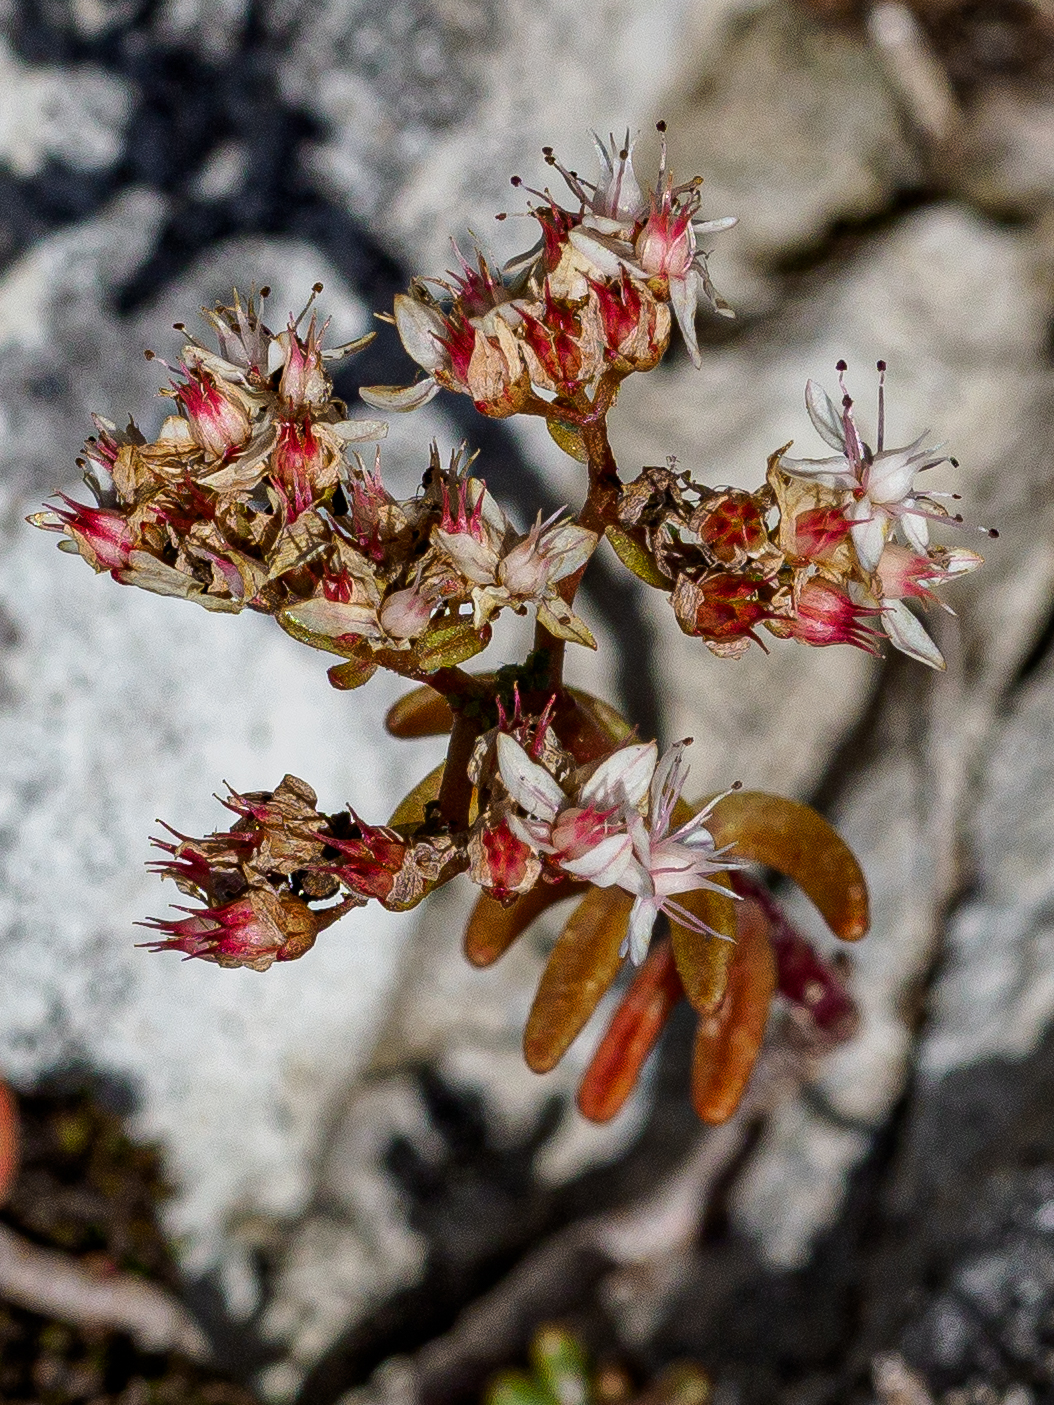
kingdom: Plantae
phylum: Tracheophyta
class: Magnoliopsida
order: Saxifragales
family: Crassulaceae
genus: Sedum
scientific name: Sedum album
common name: White stonecrop
